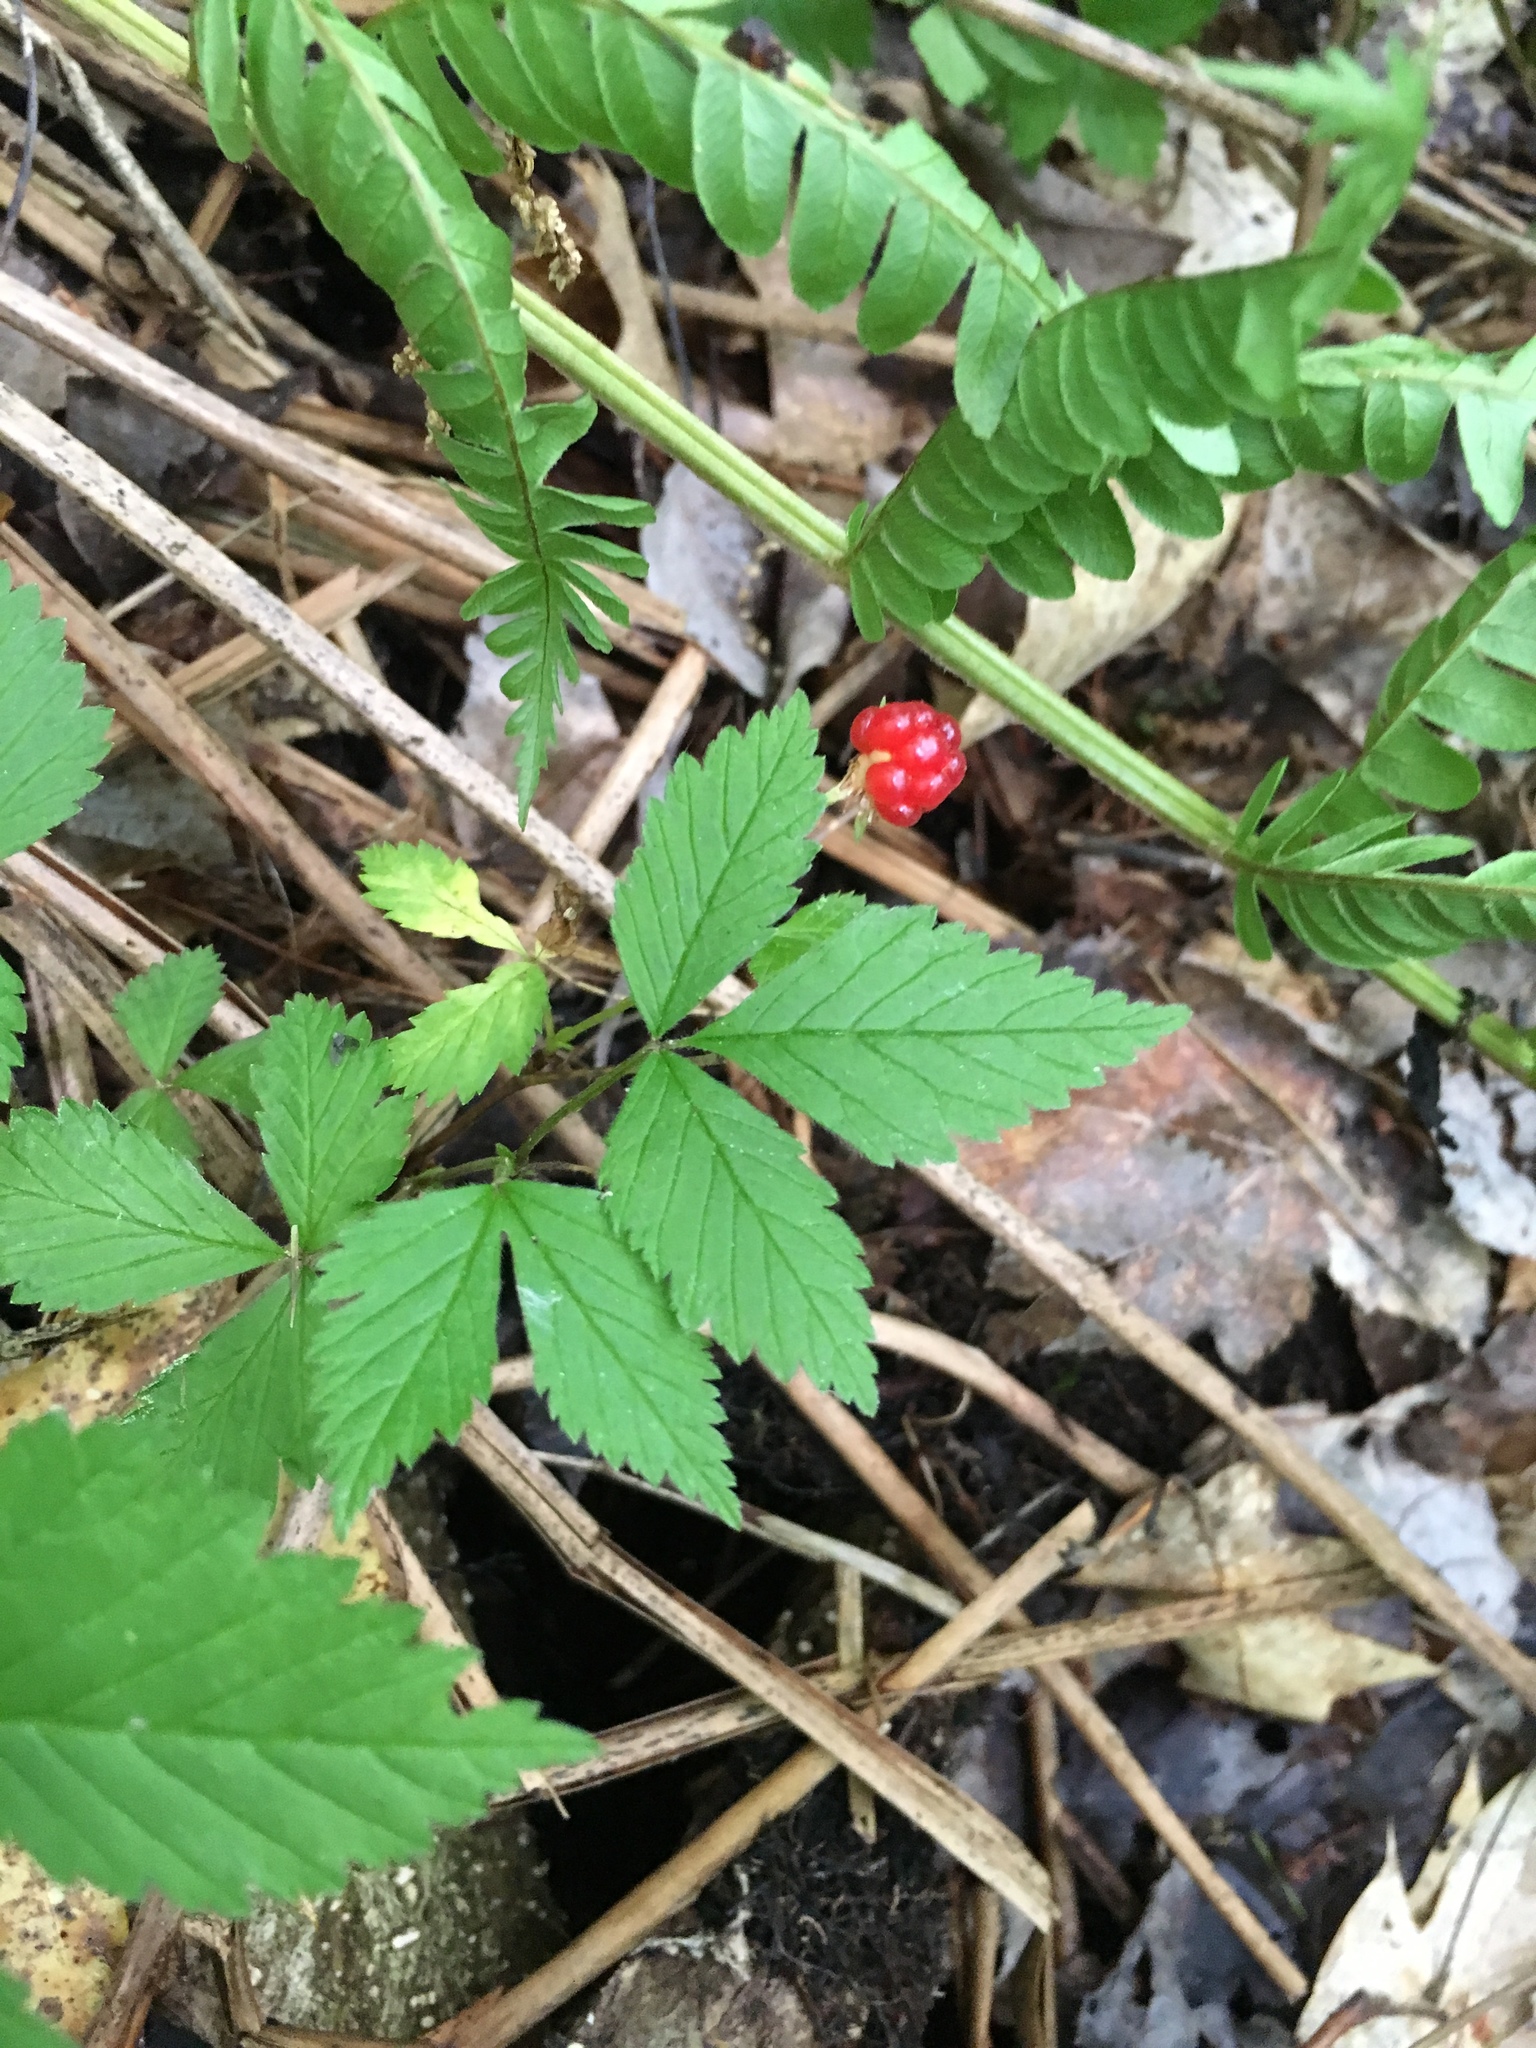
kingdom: Plantae
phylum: Tracheophyta
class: Magnoliopsida
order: Rosales
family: Rosaceae
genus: Rubus
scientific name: Rubus pubescens
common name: Dwarf raspberry
